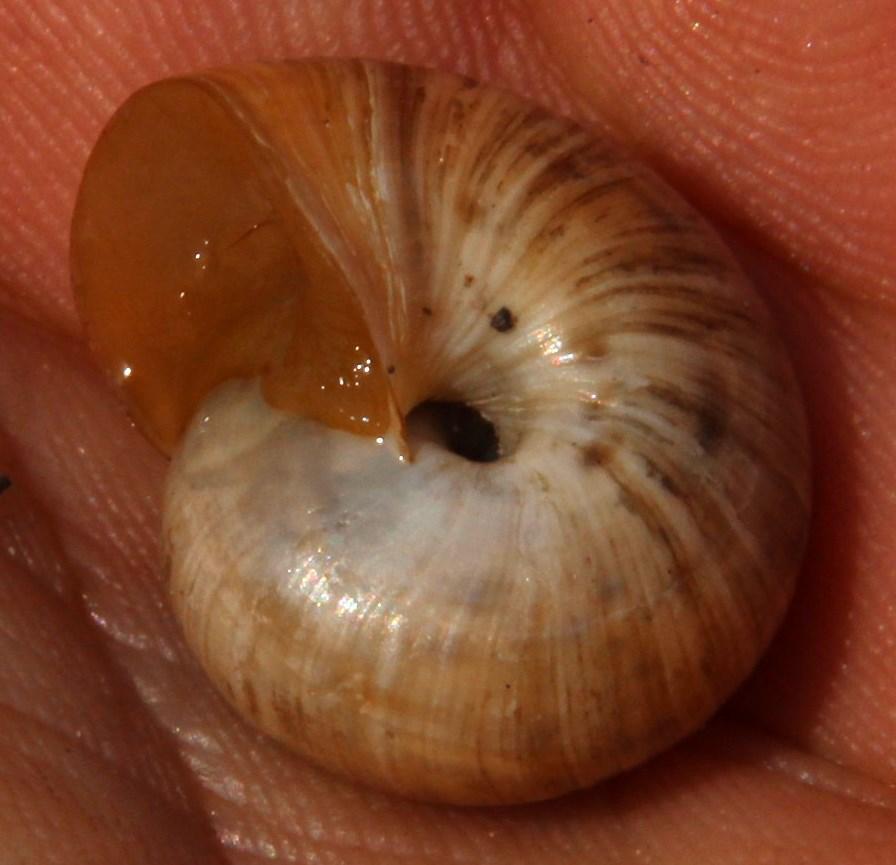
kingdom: Animalia
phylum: Mollusca
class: Gastropoda
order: Stylommatophora
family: Charopidae
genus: Phortion
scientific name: Phortion menkeanum
